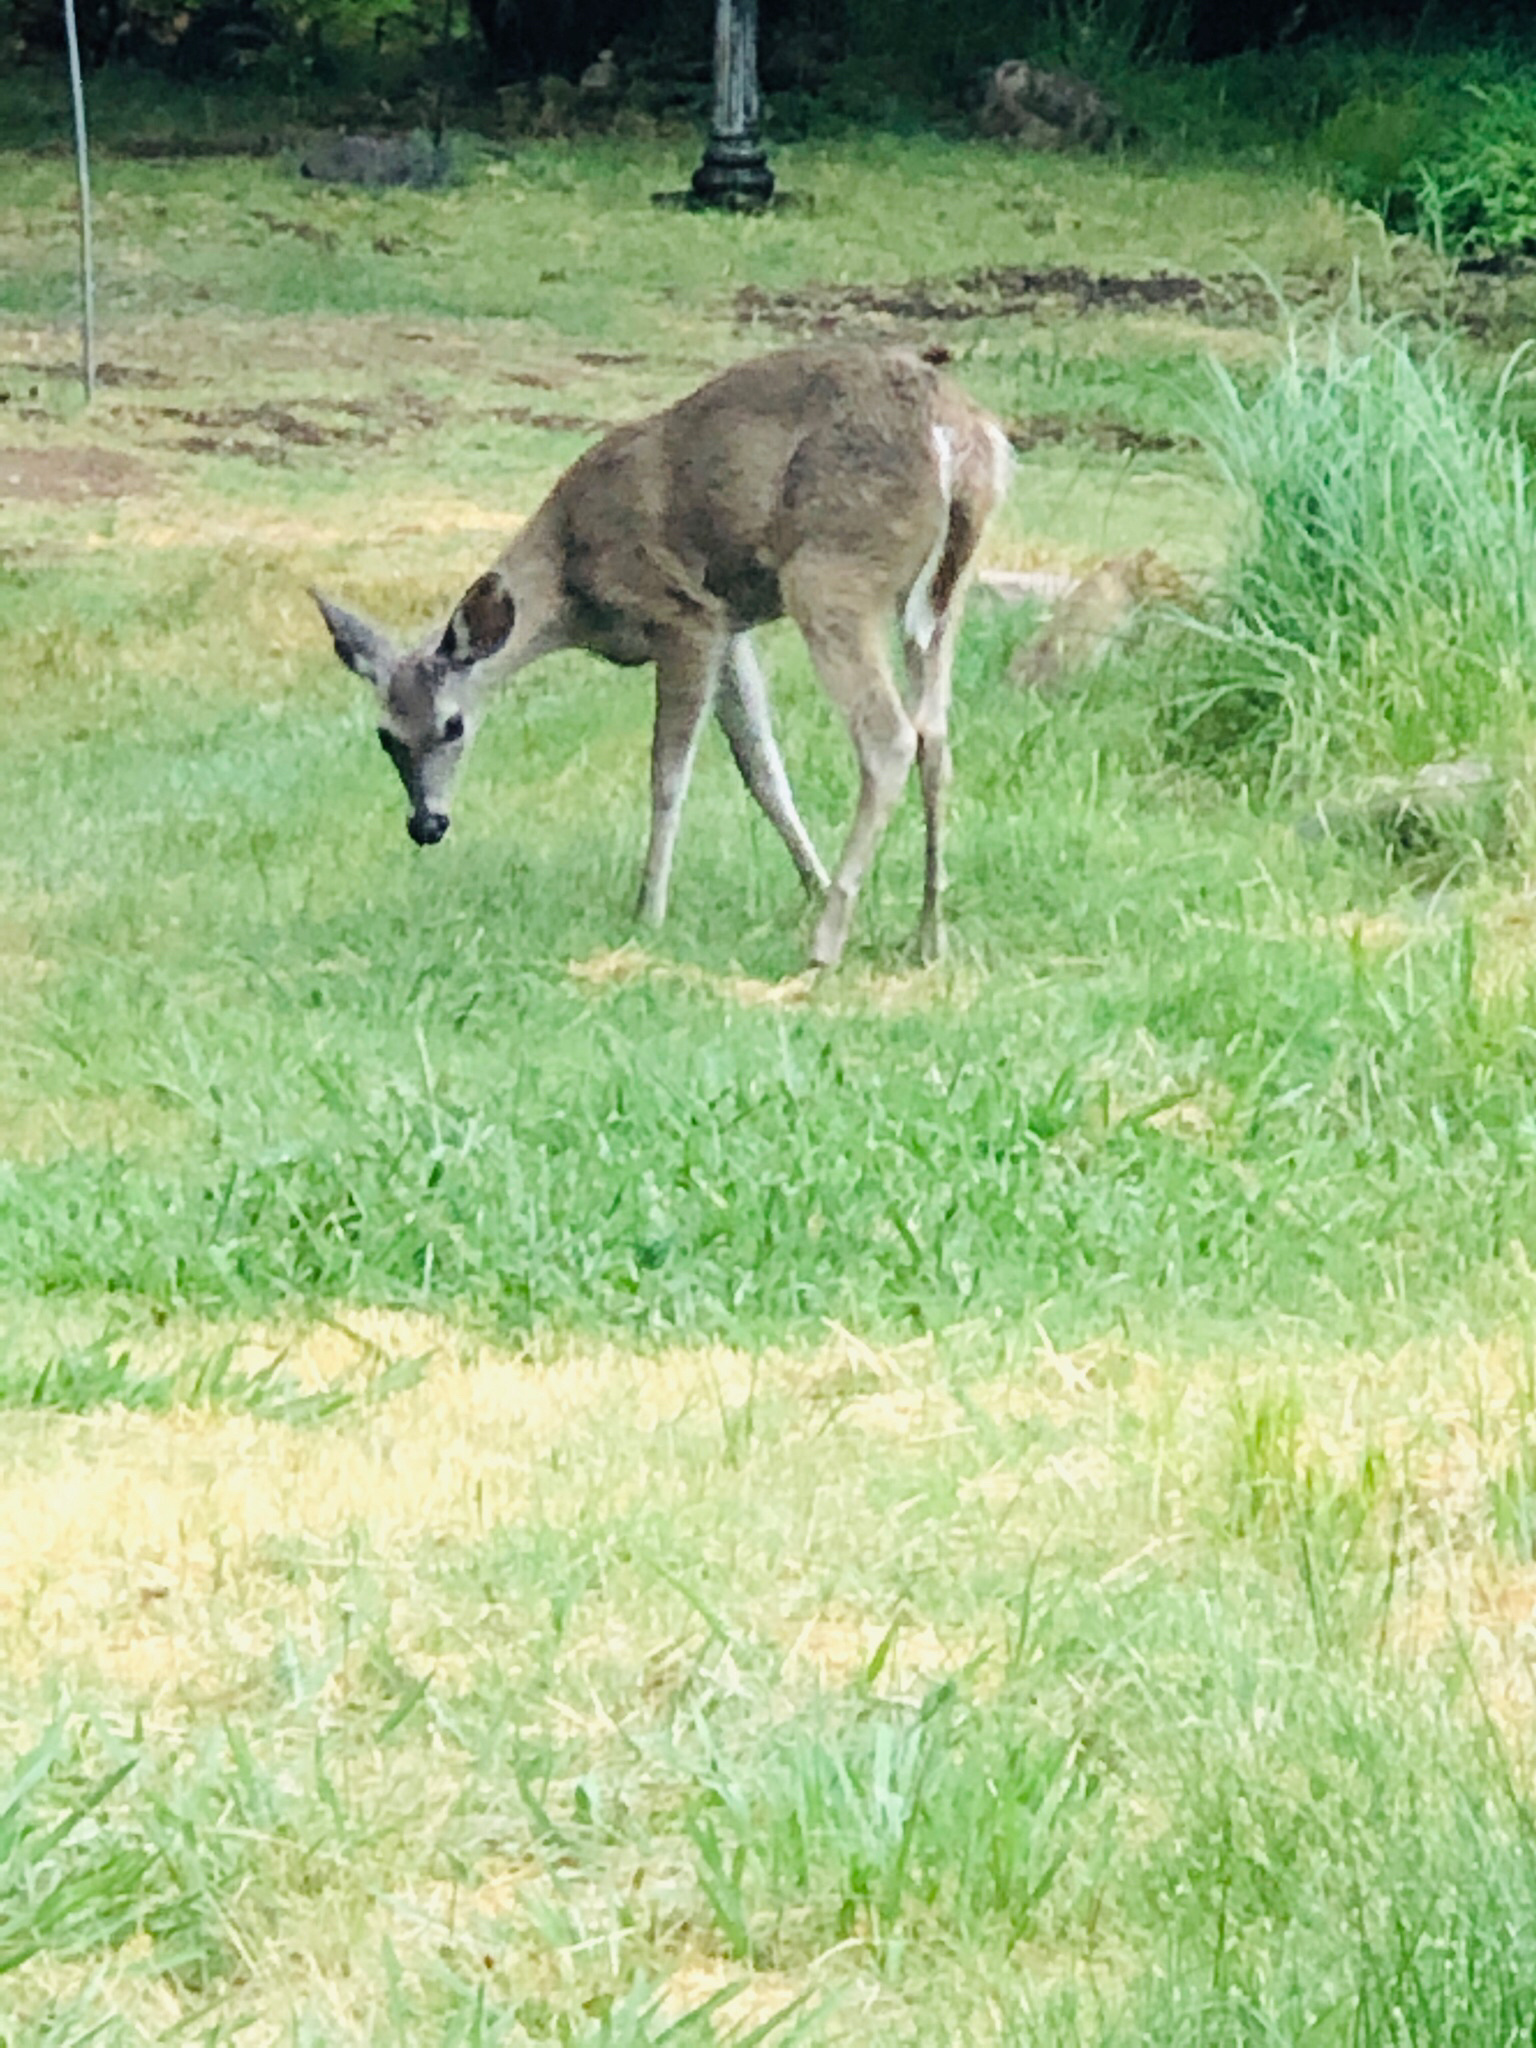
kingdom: Animalia
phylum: Chordata
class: Mammalia
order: Artiodactyla
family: Cervidae
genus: Odocoileus
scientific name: Odocoileus virginianus
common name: White-tailed deer
